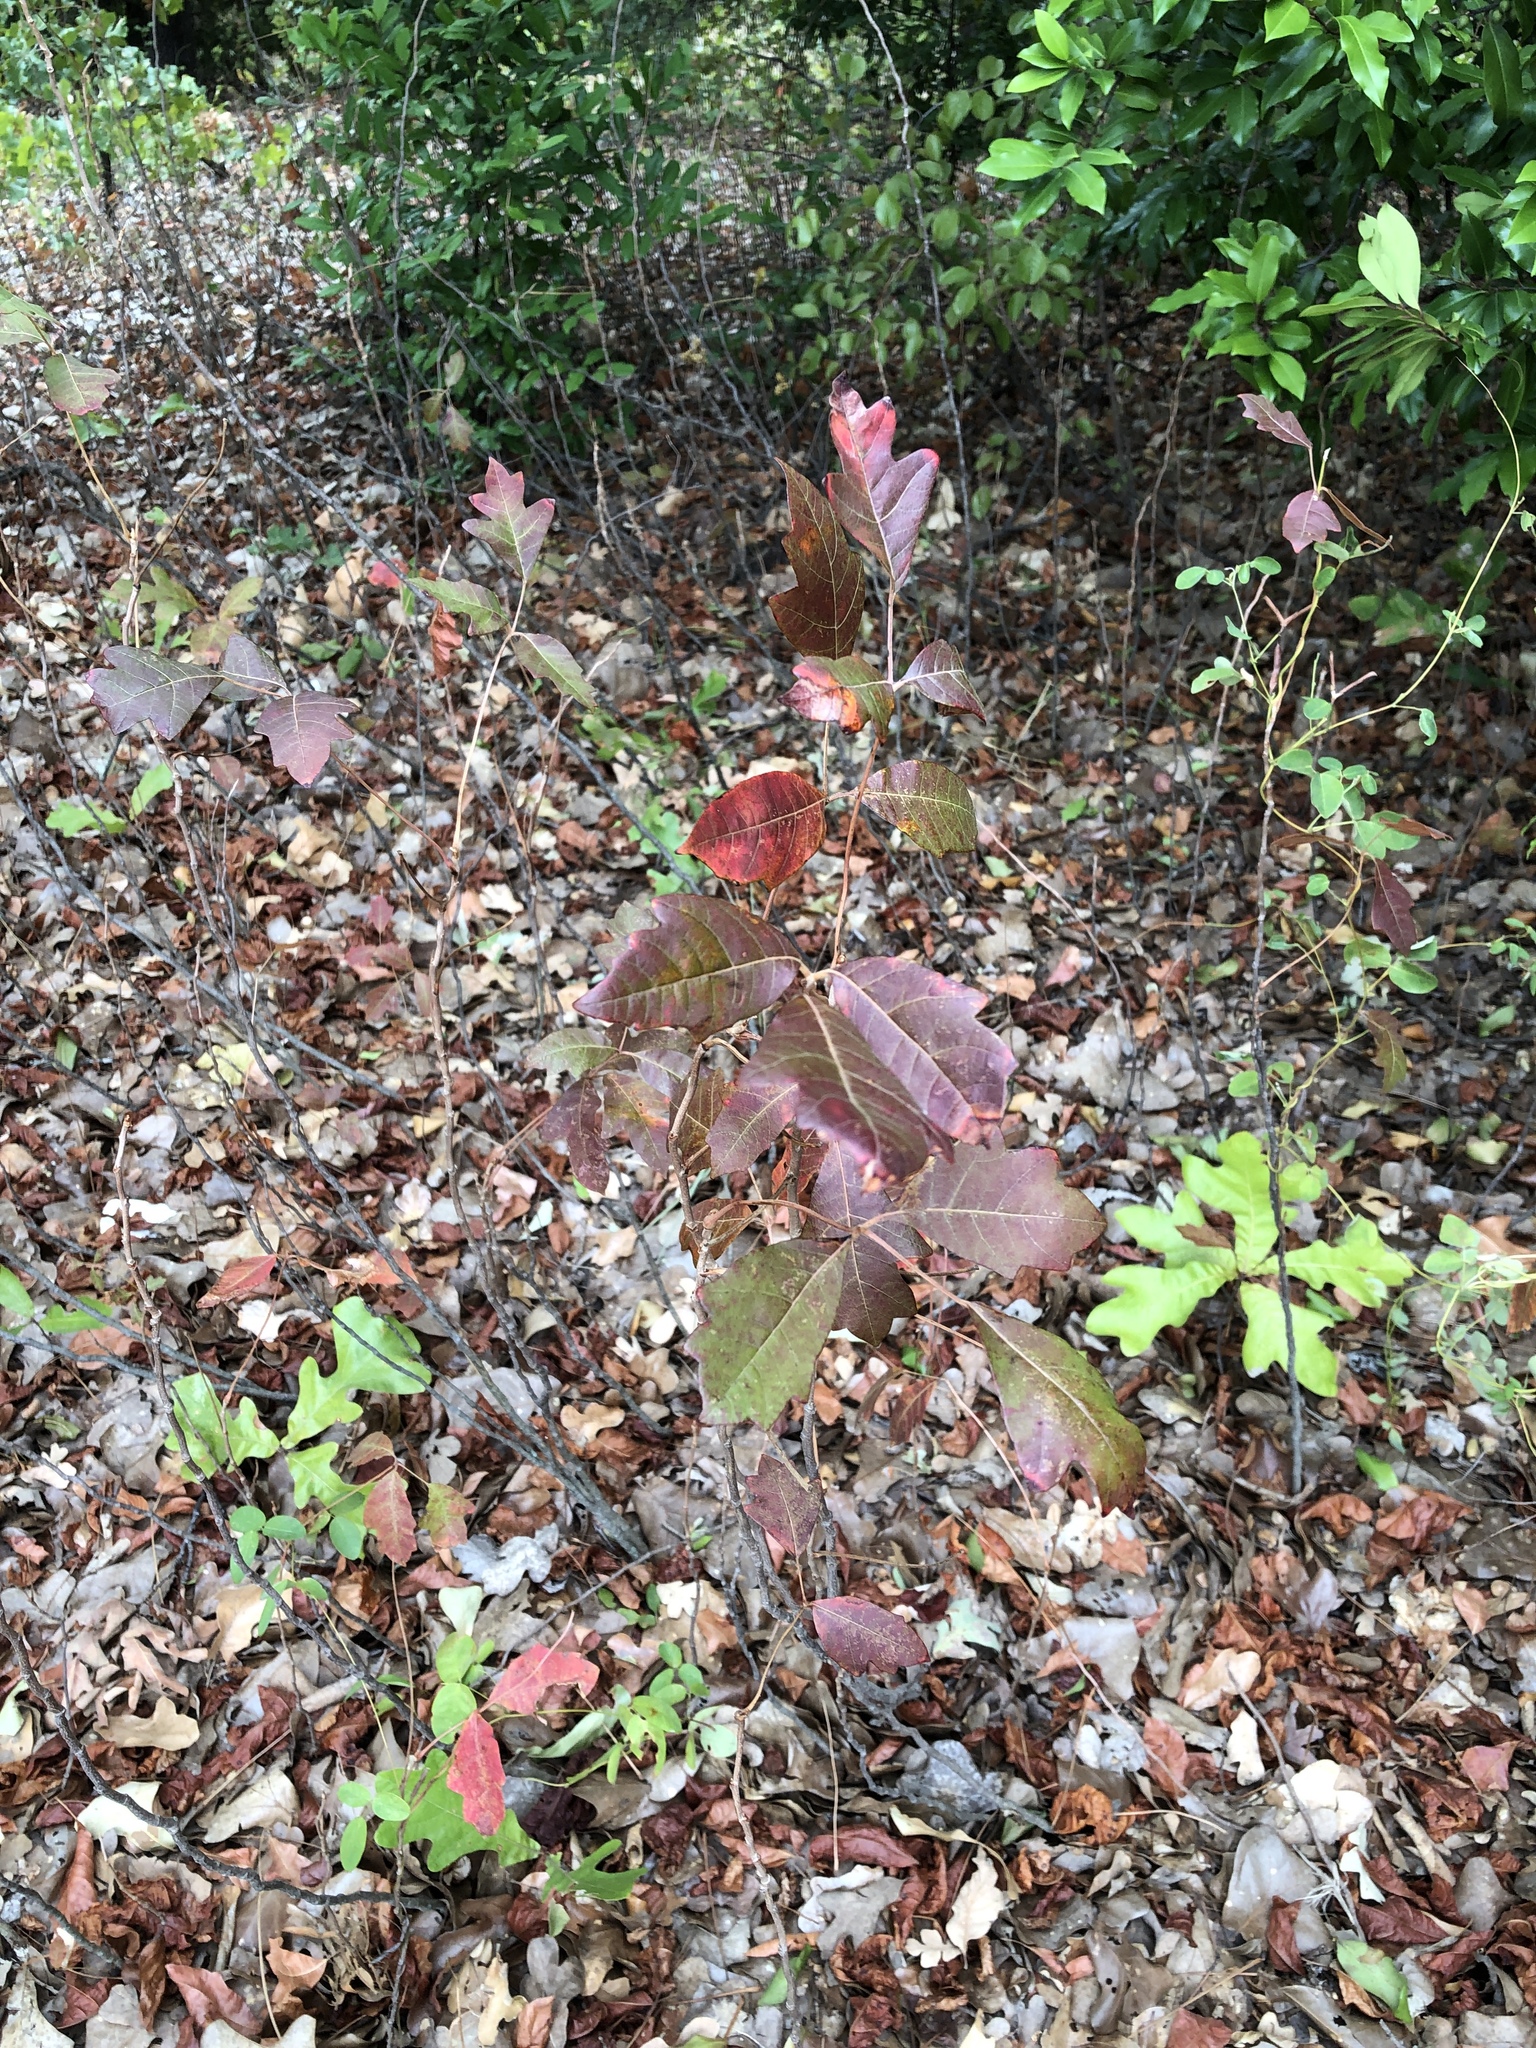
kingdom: Plantae
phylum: Tracheophyta
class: Magnoliopsida
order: Sapindales
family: Anacardiaceae
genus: Toxicodendron
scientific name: Toxicodendron radicans
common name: Poison ivy
